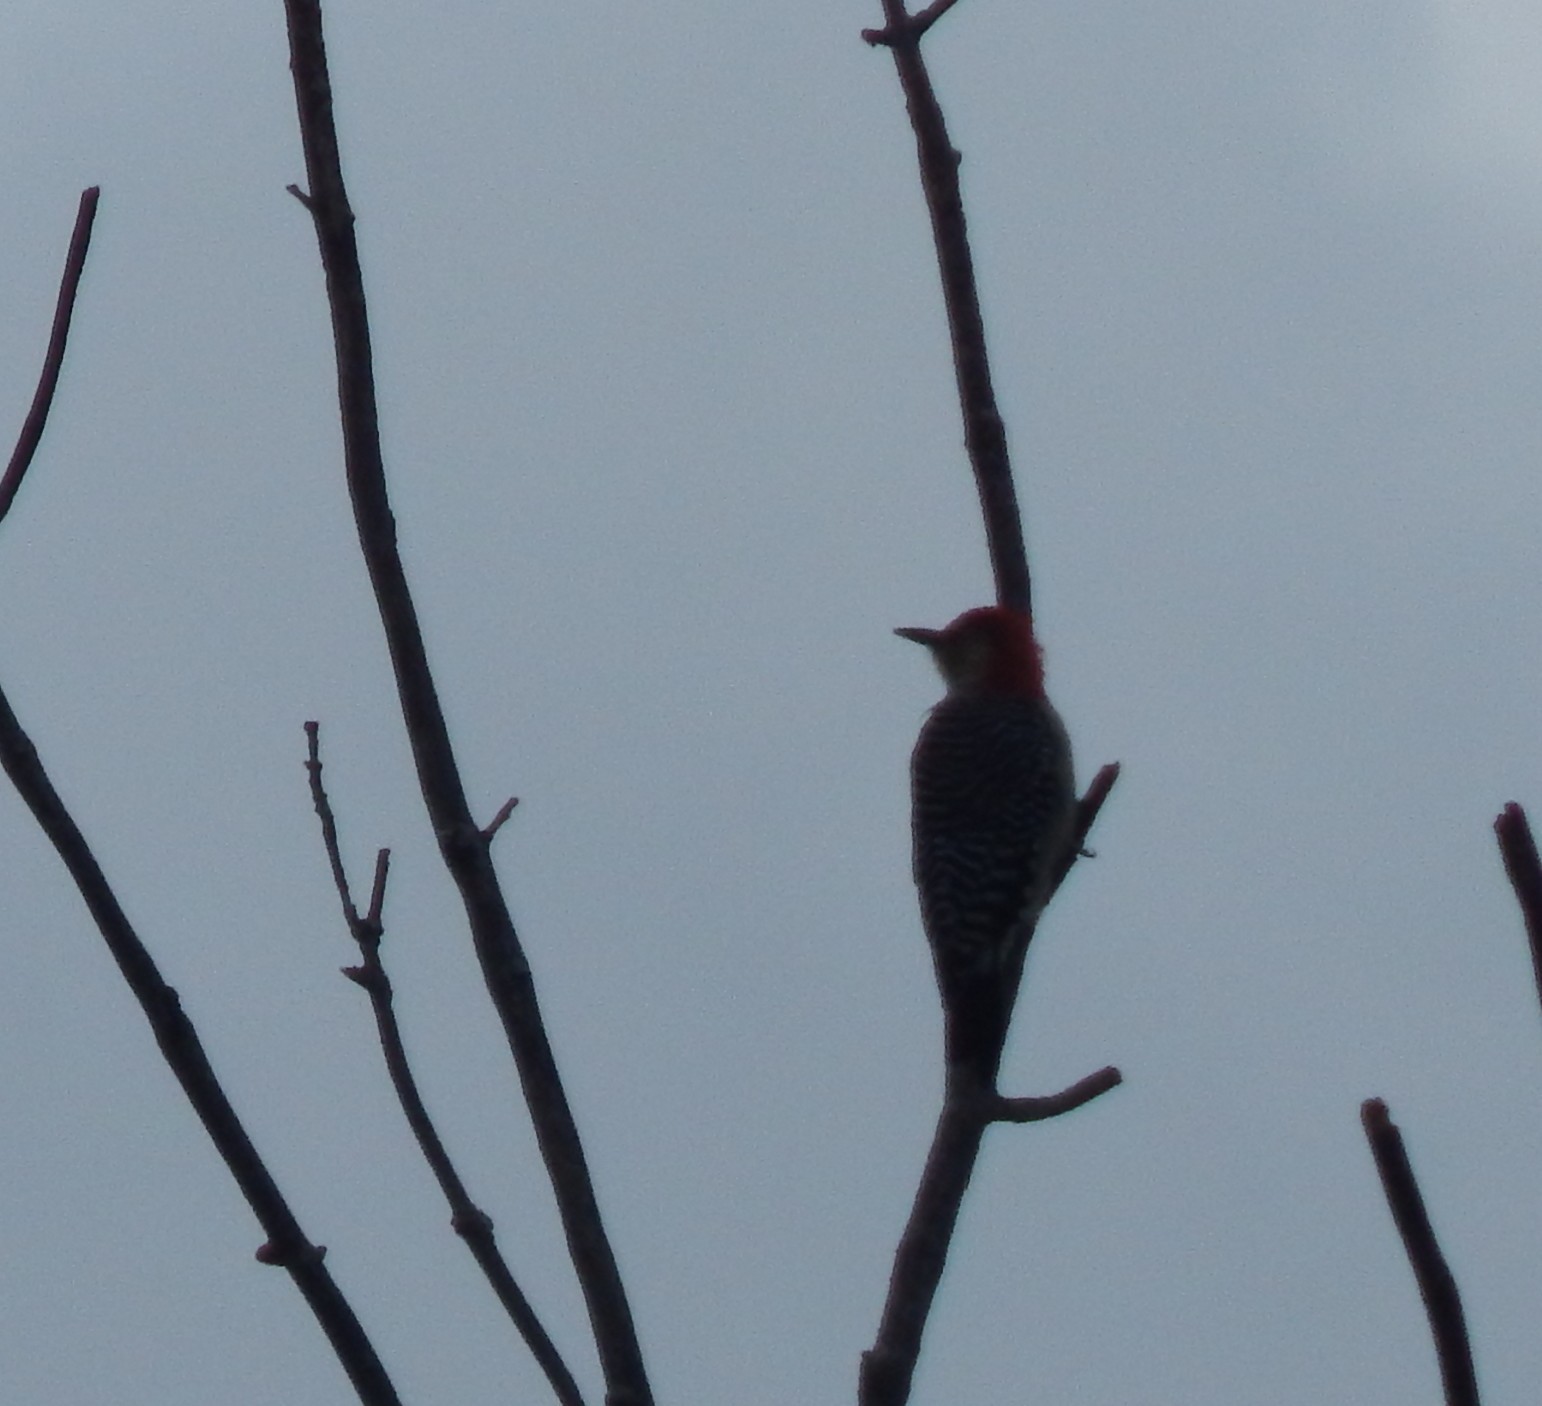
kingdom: Animalia
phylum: Chordata
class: Aves
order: Piciformes
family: Picidae
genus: Melanerpes
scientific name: Melanerpes carolinus
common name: Red-bellied woodpecker
